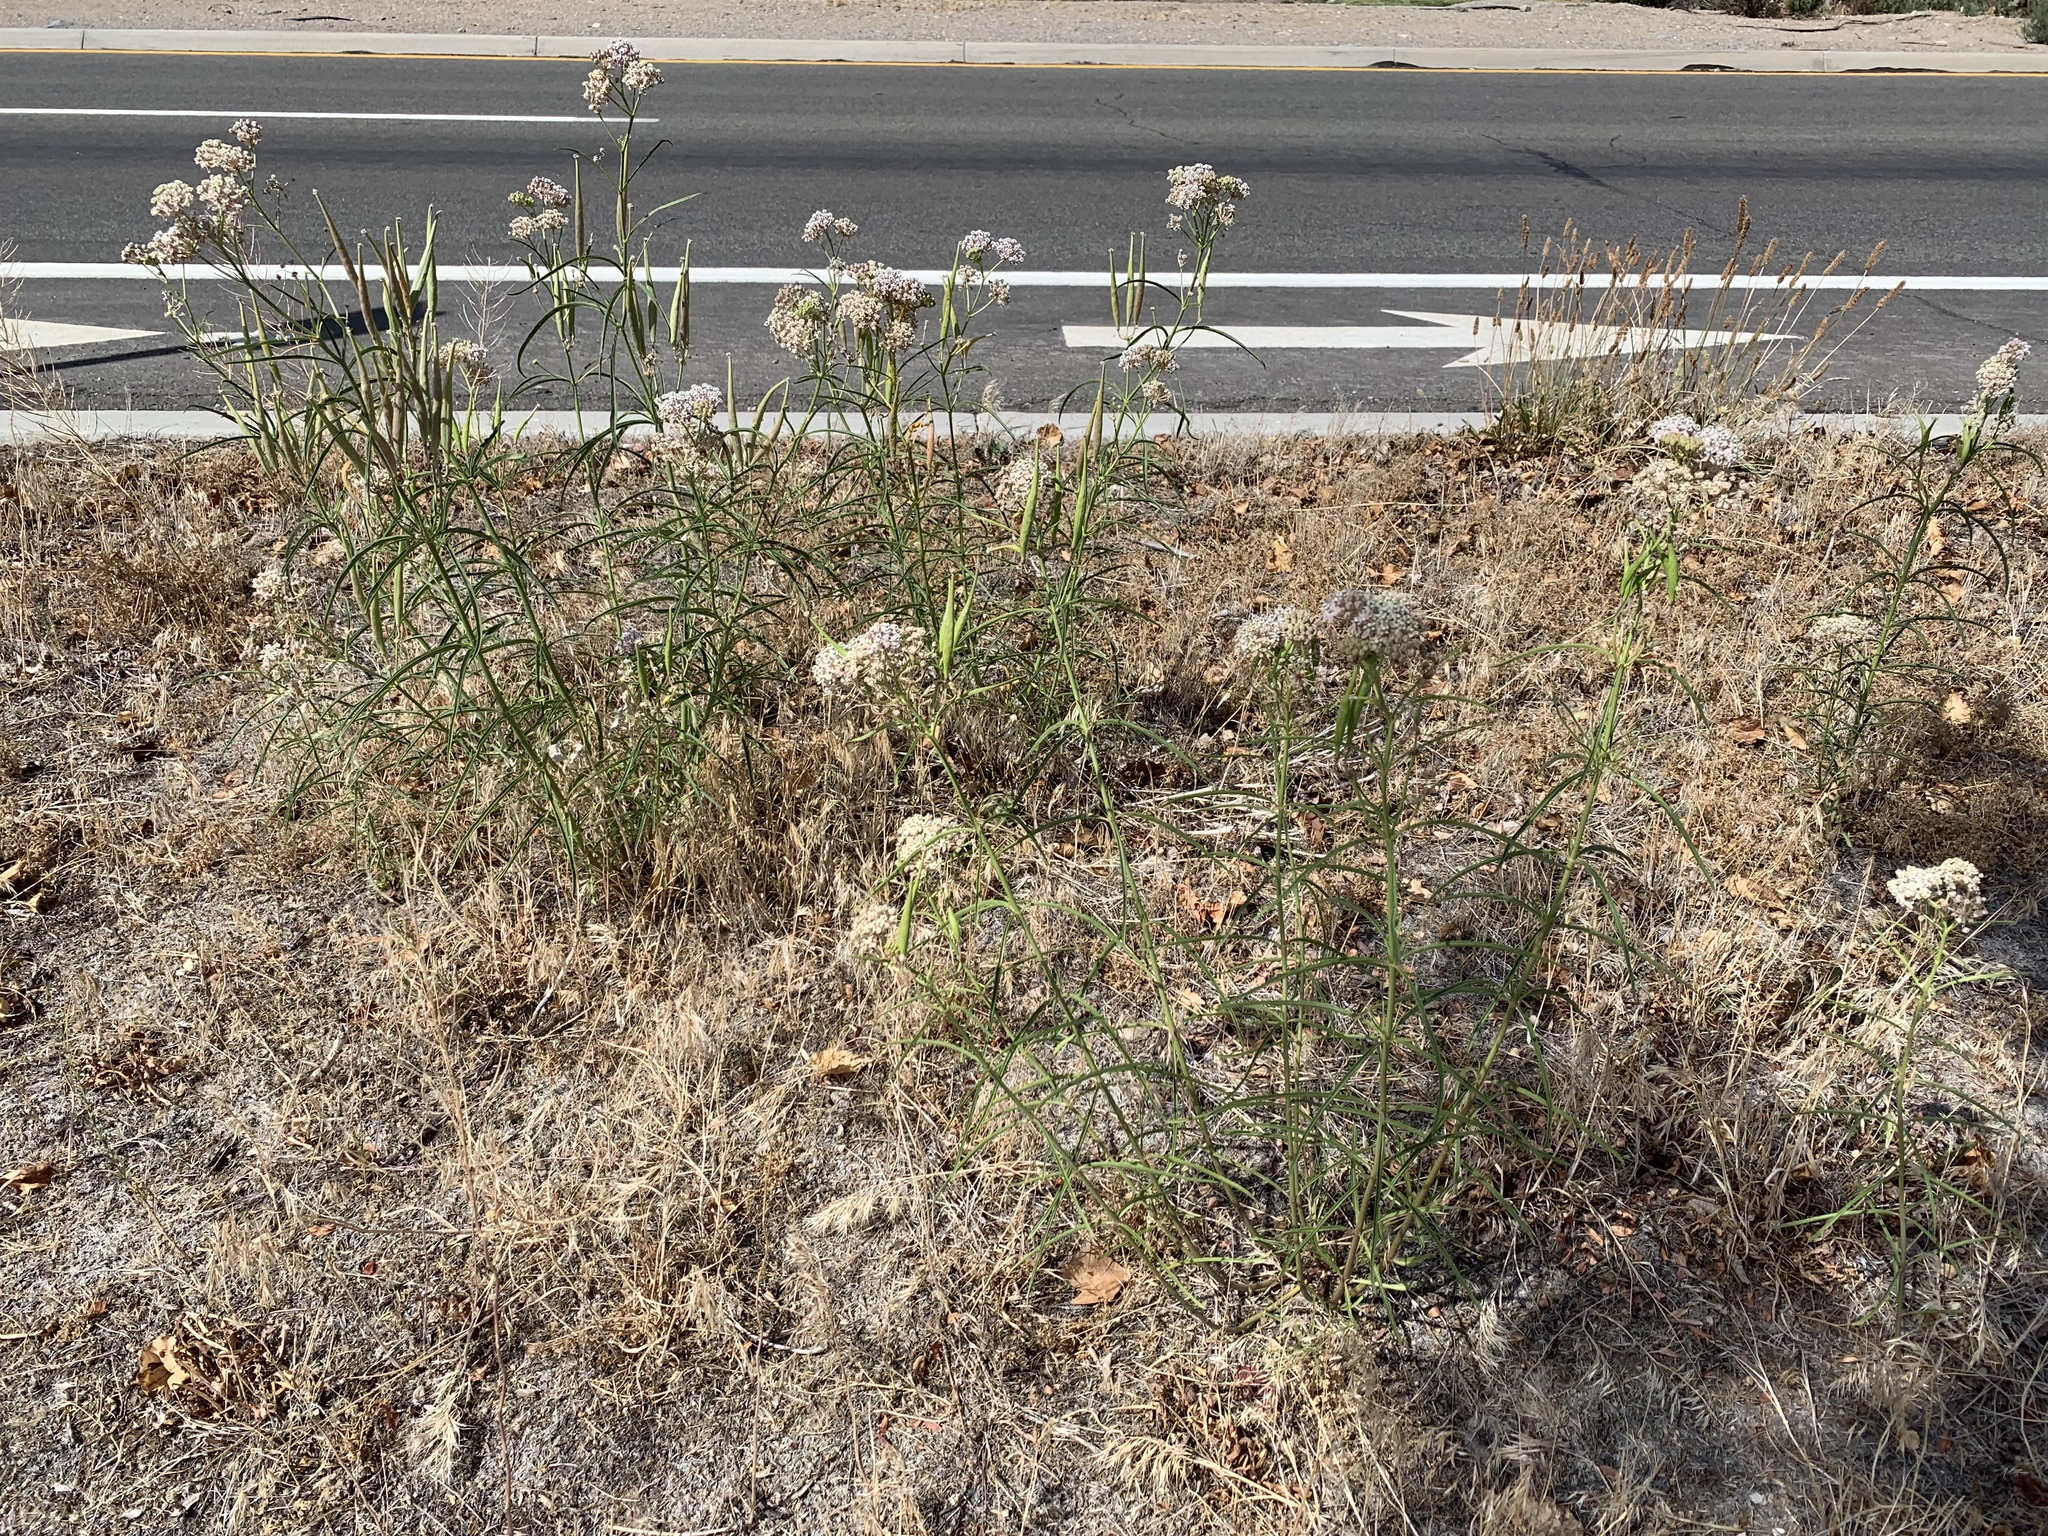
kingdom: Plantae
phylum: Tracheophyta
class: Magnoliopsida
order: Gentianales
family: Apocynaceae
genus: Asclepias
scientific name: Asclepias fascicularis
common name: Mexican milkweed
